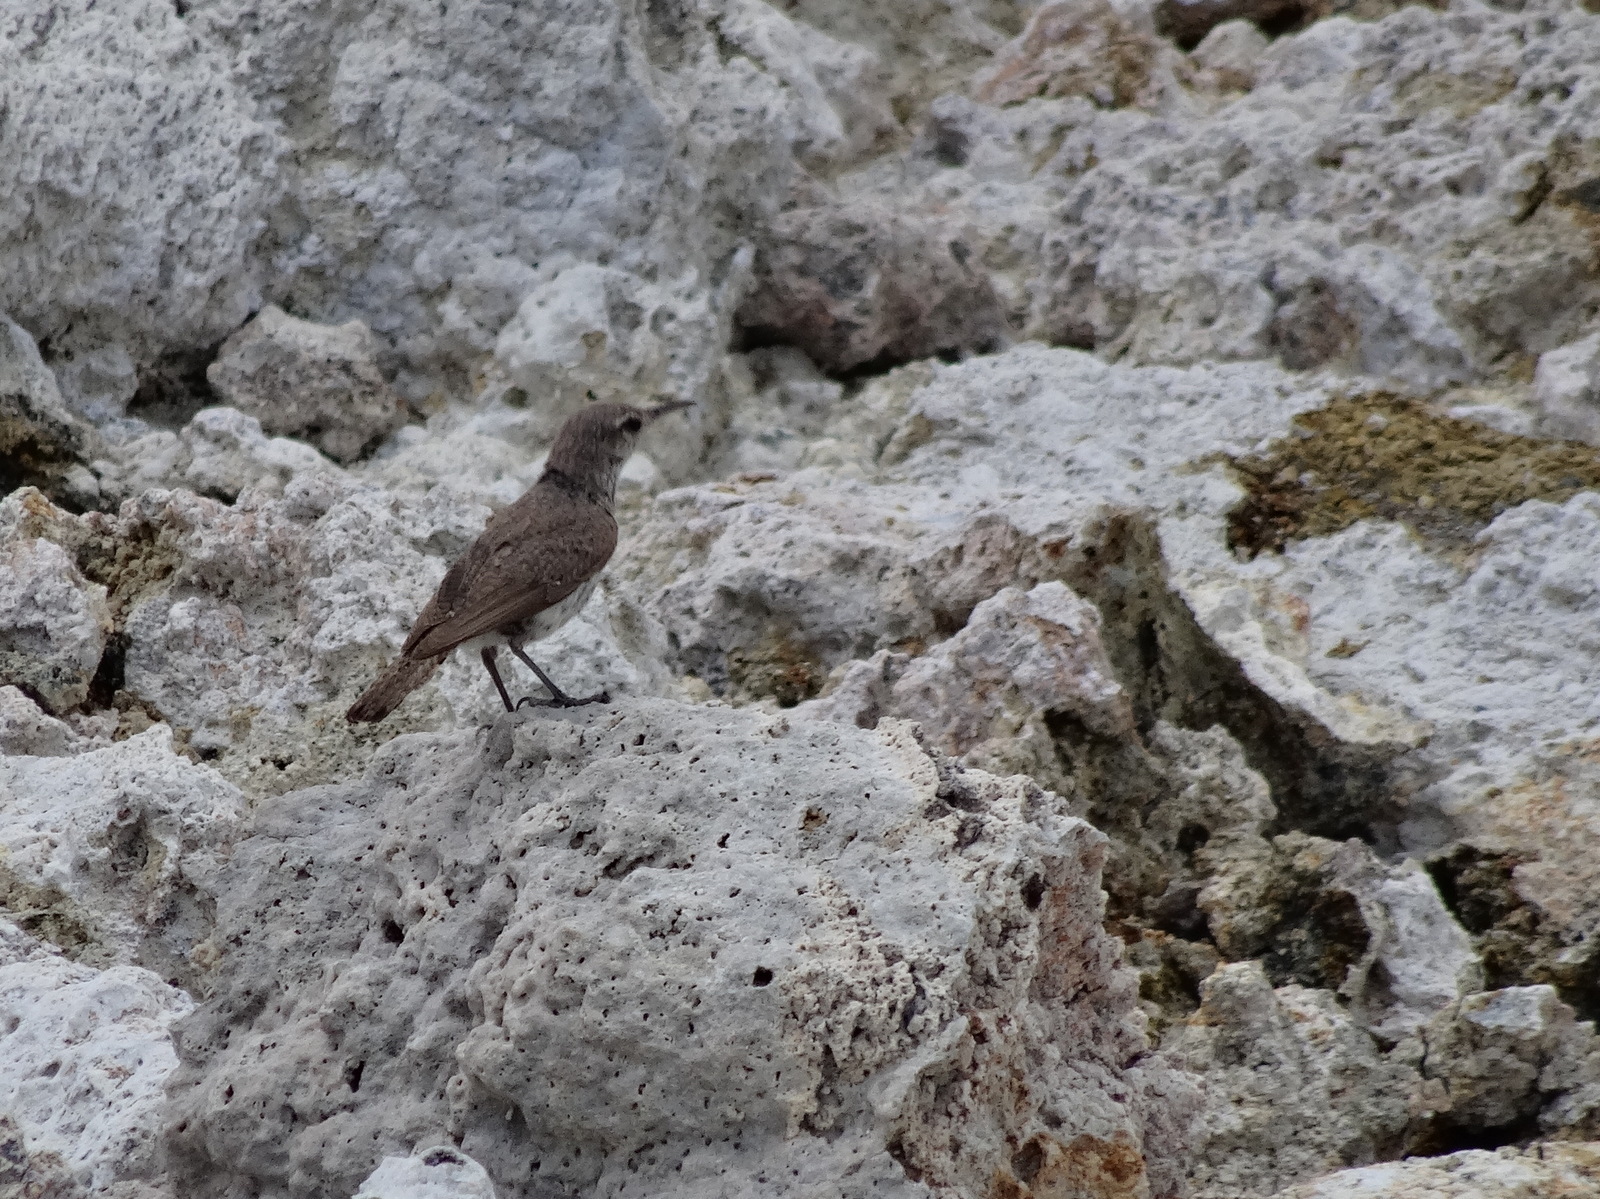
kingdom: Animalia
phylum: Chordata
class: Aves
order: Passeriformes
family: Troglodytidae
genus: Salpinctes
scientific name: Salpinctes obsoletus
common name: Rock wren
